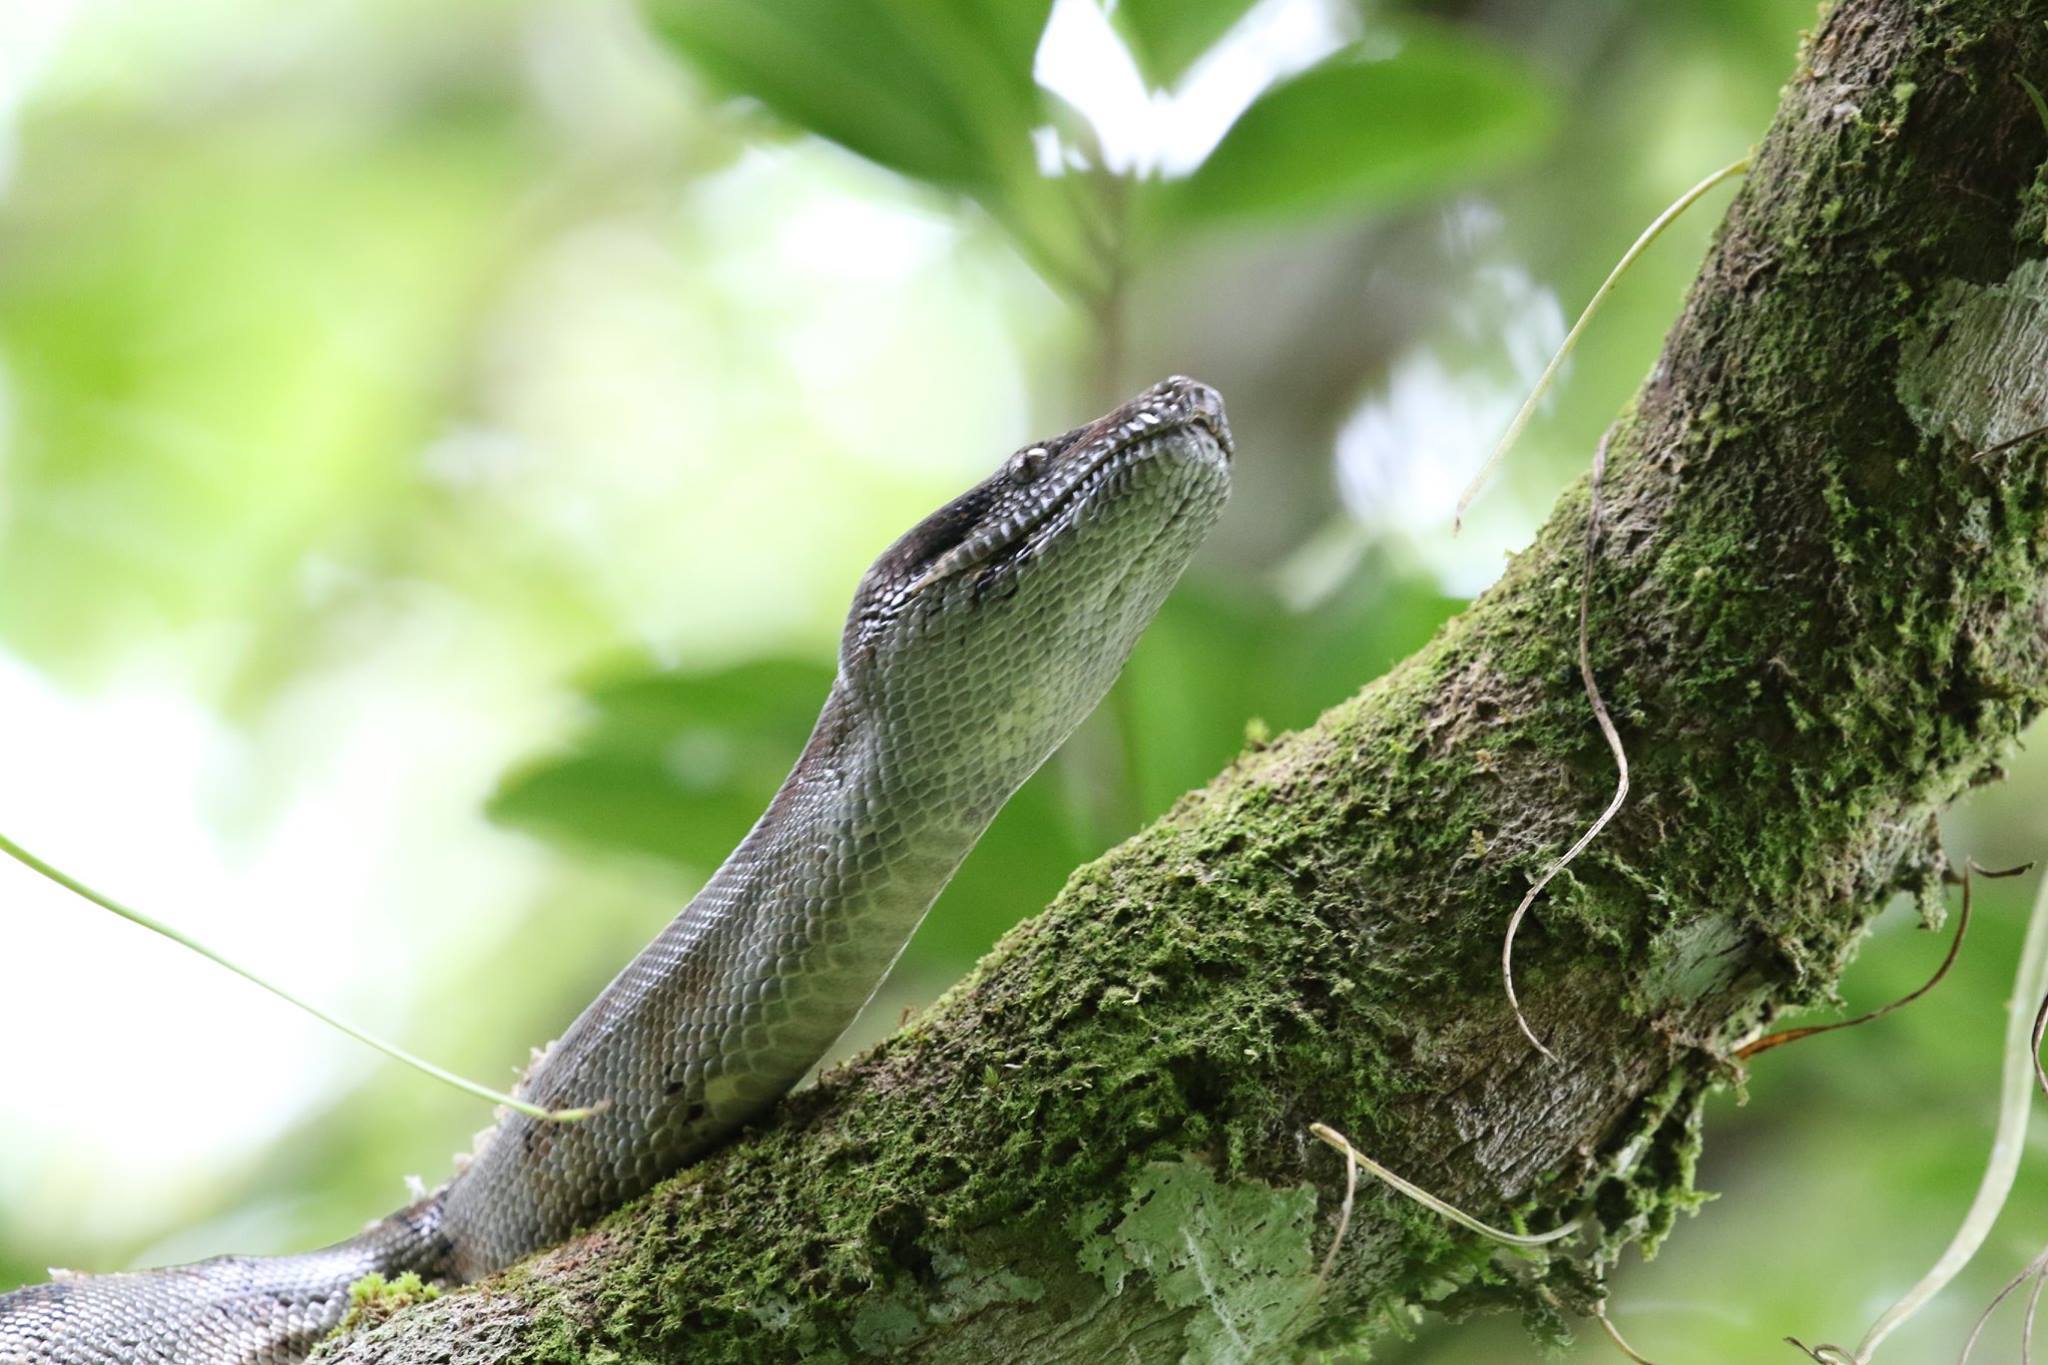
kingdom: Animalia
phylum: Chordata
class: Squamata
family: Boidae
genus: Boa
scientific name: Boa imperator
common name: Central american boa
